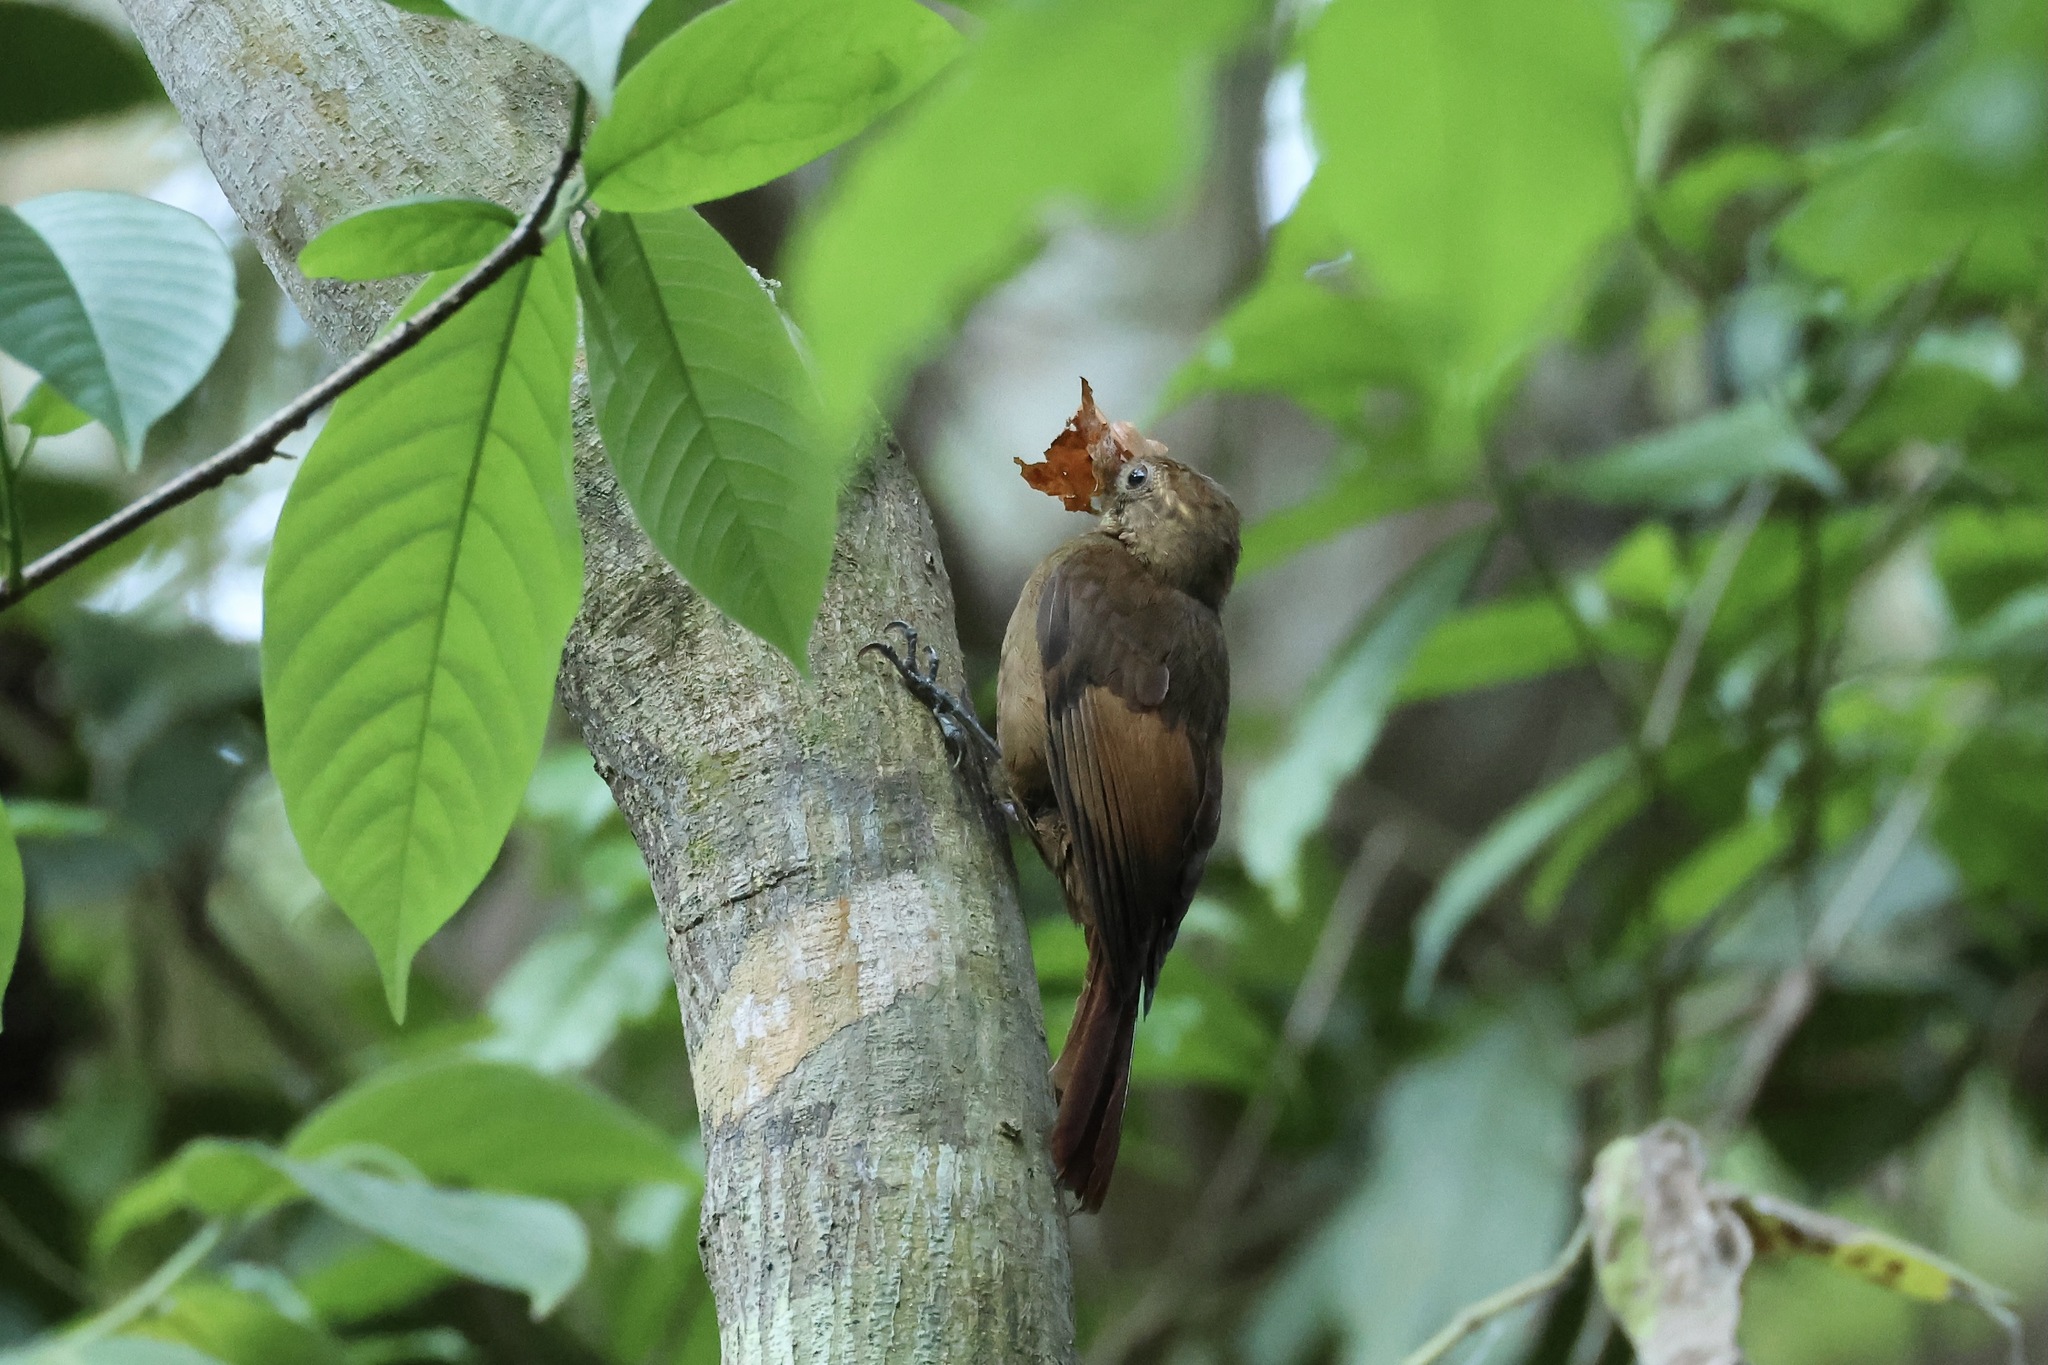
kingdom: Animalia
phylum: Chordata
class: Aves
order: Passeriformes
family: Furnariidae
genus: Dendrocincla
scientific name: Dendrocincla anabatina
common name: Tawny-winged woodcreeper
